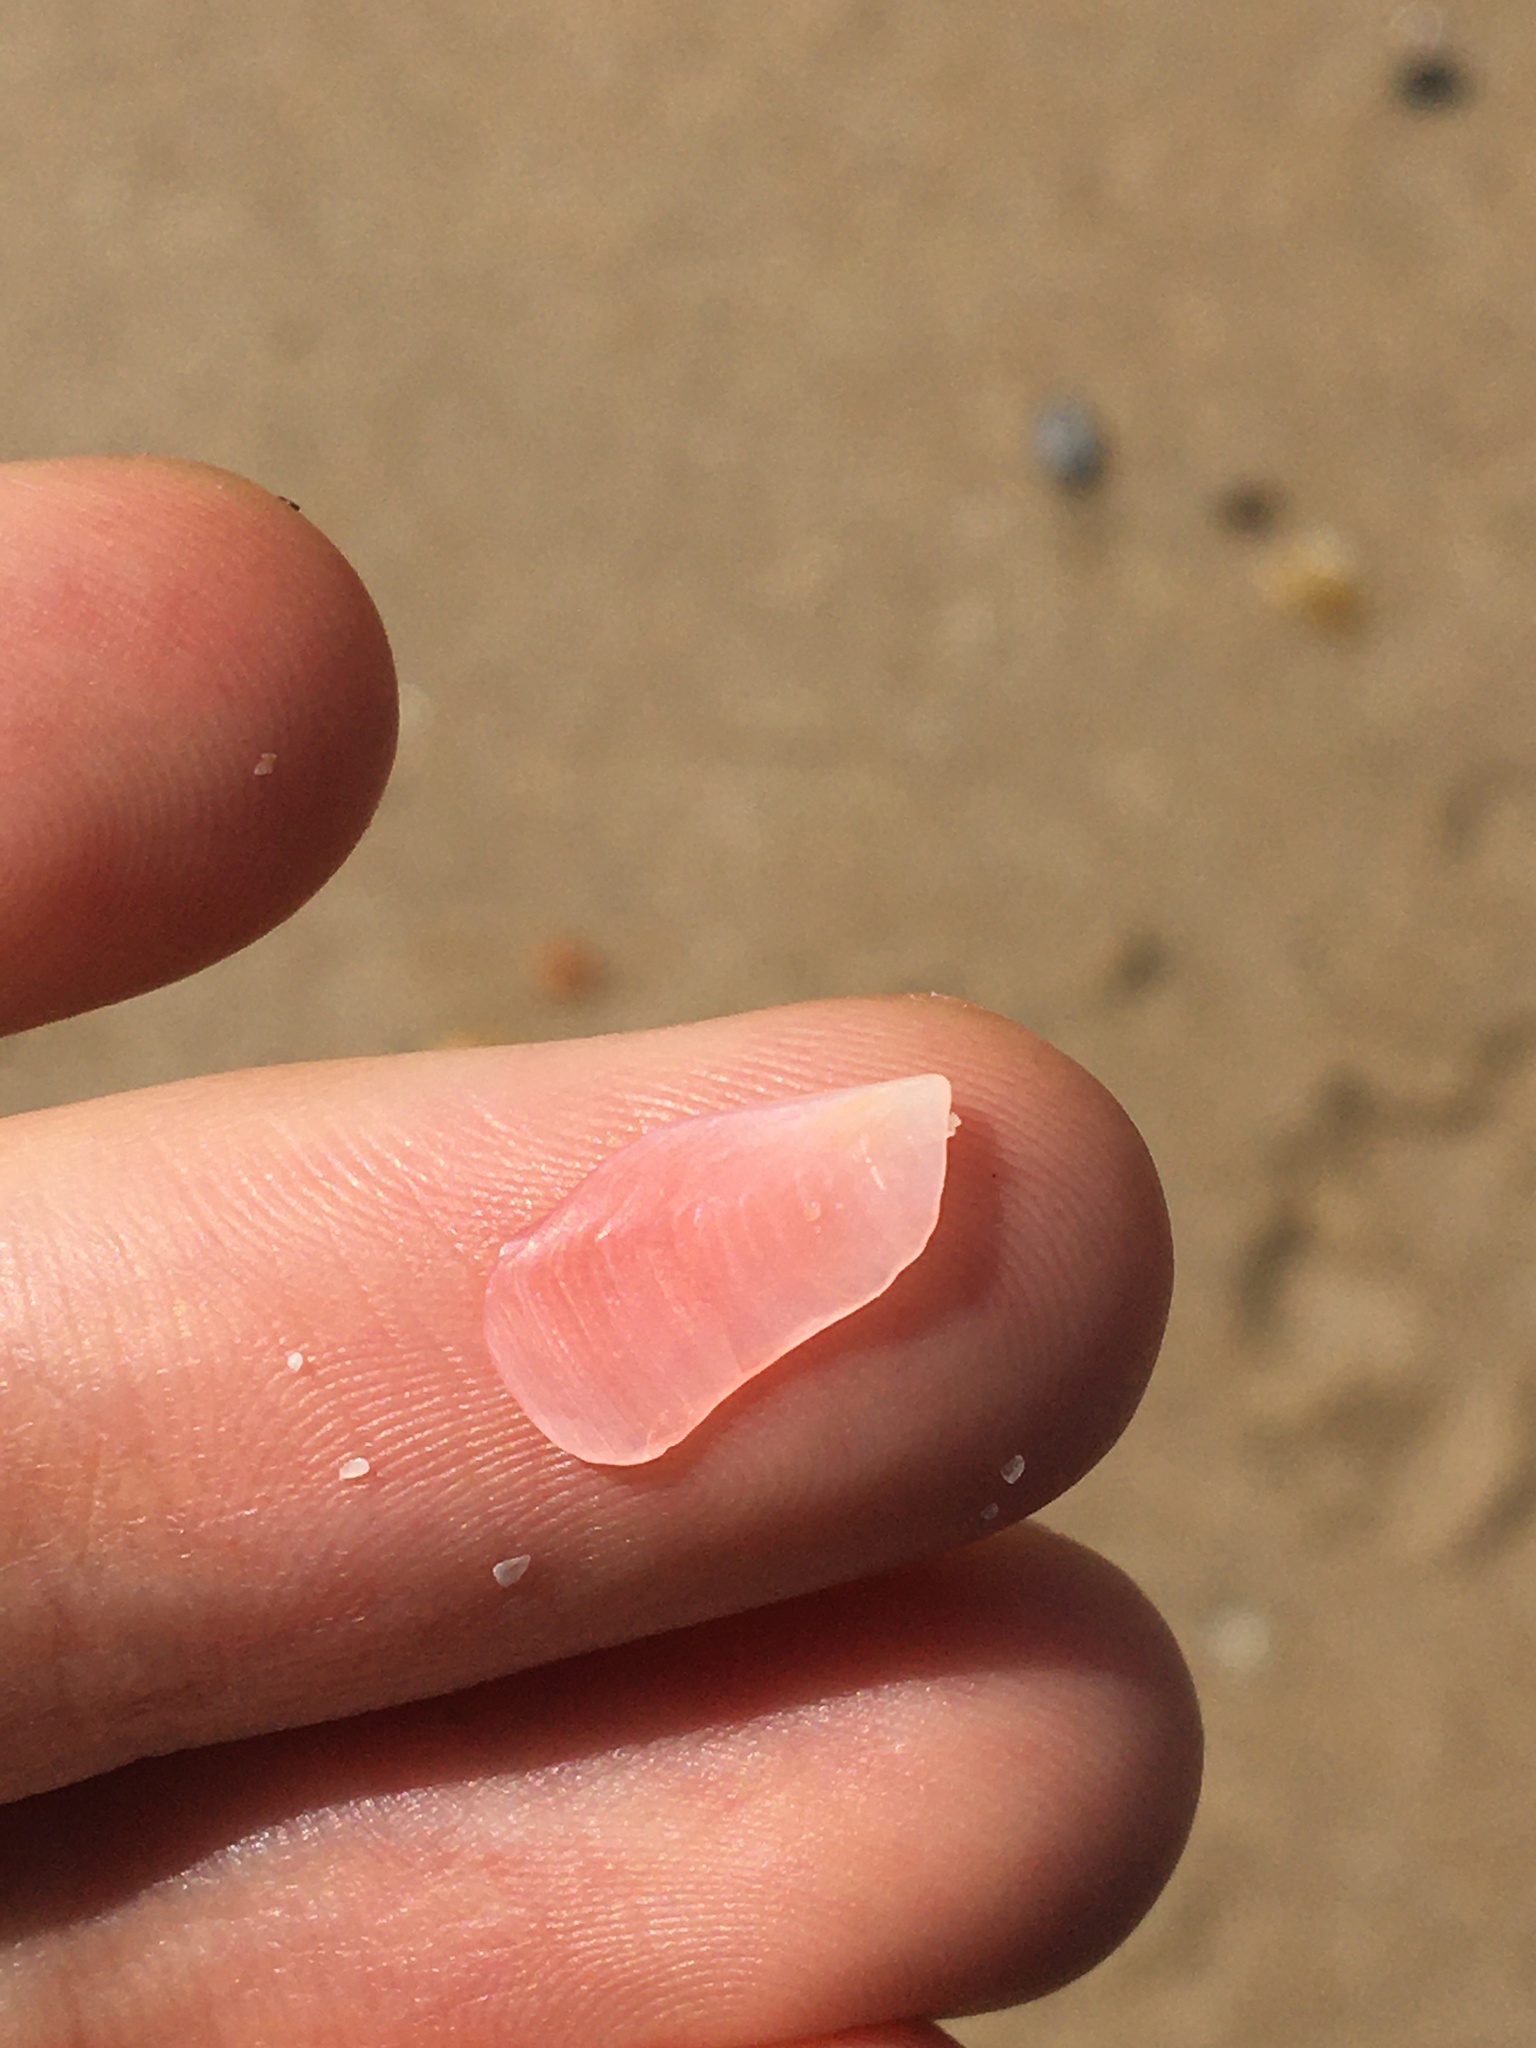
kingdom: Animalia
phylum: Mollusca
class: Bivalvia
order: Cardiida
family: Tellinidae
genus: Tellinota
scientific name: Tellinota albinella
